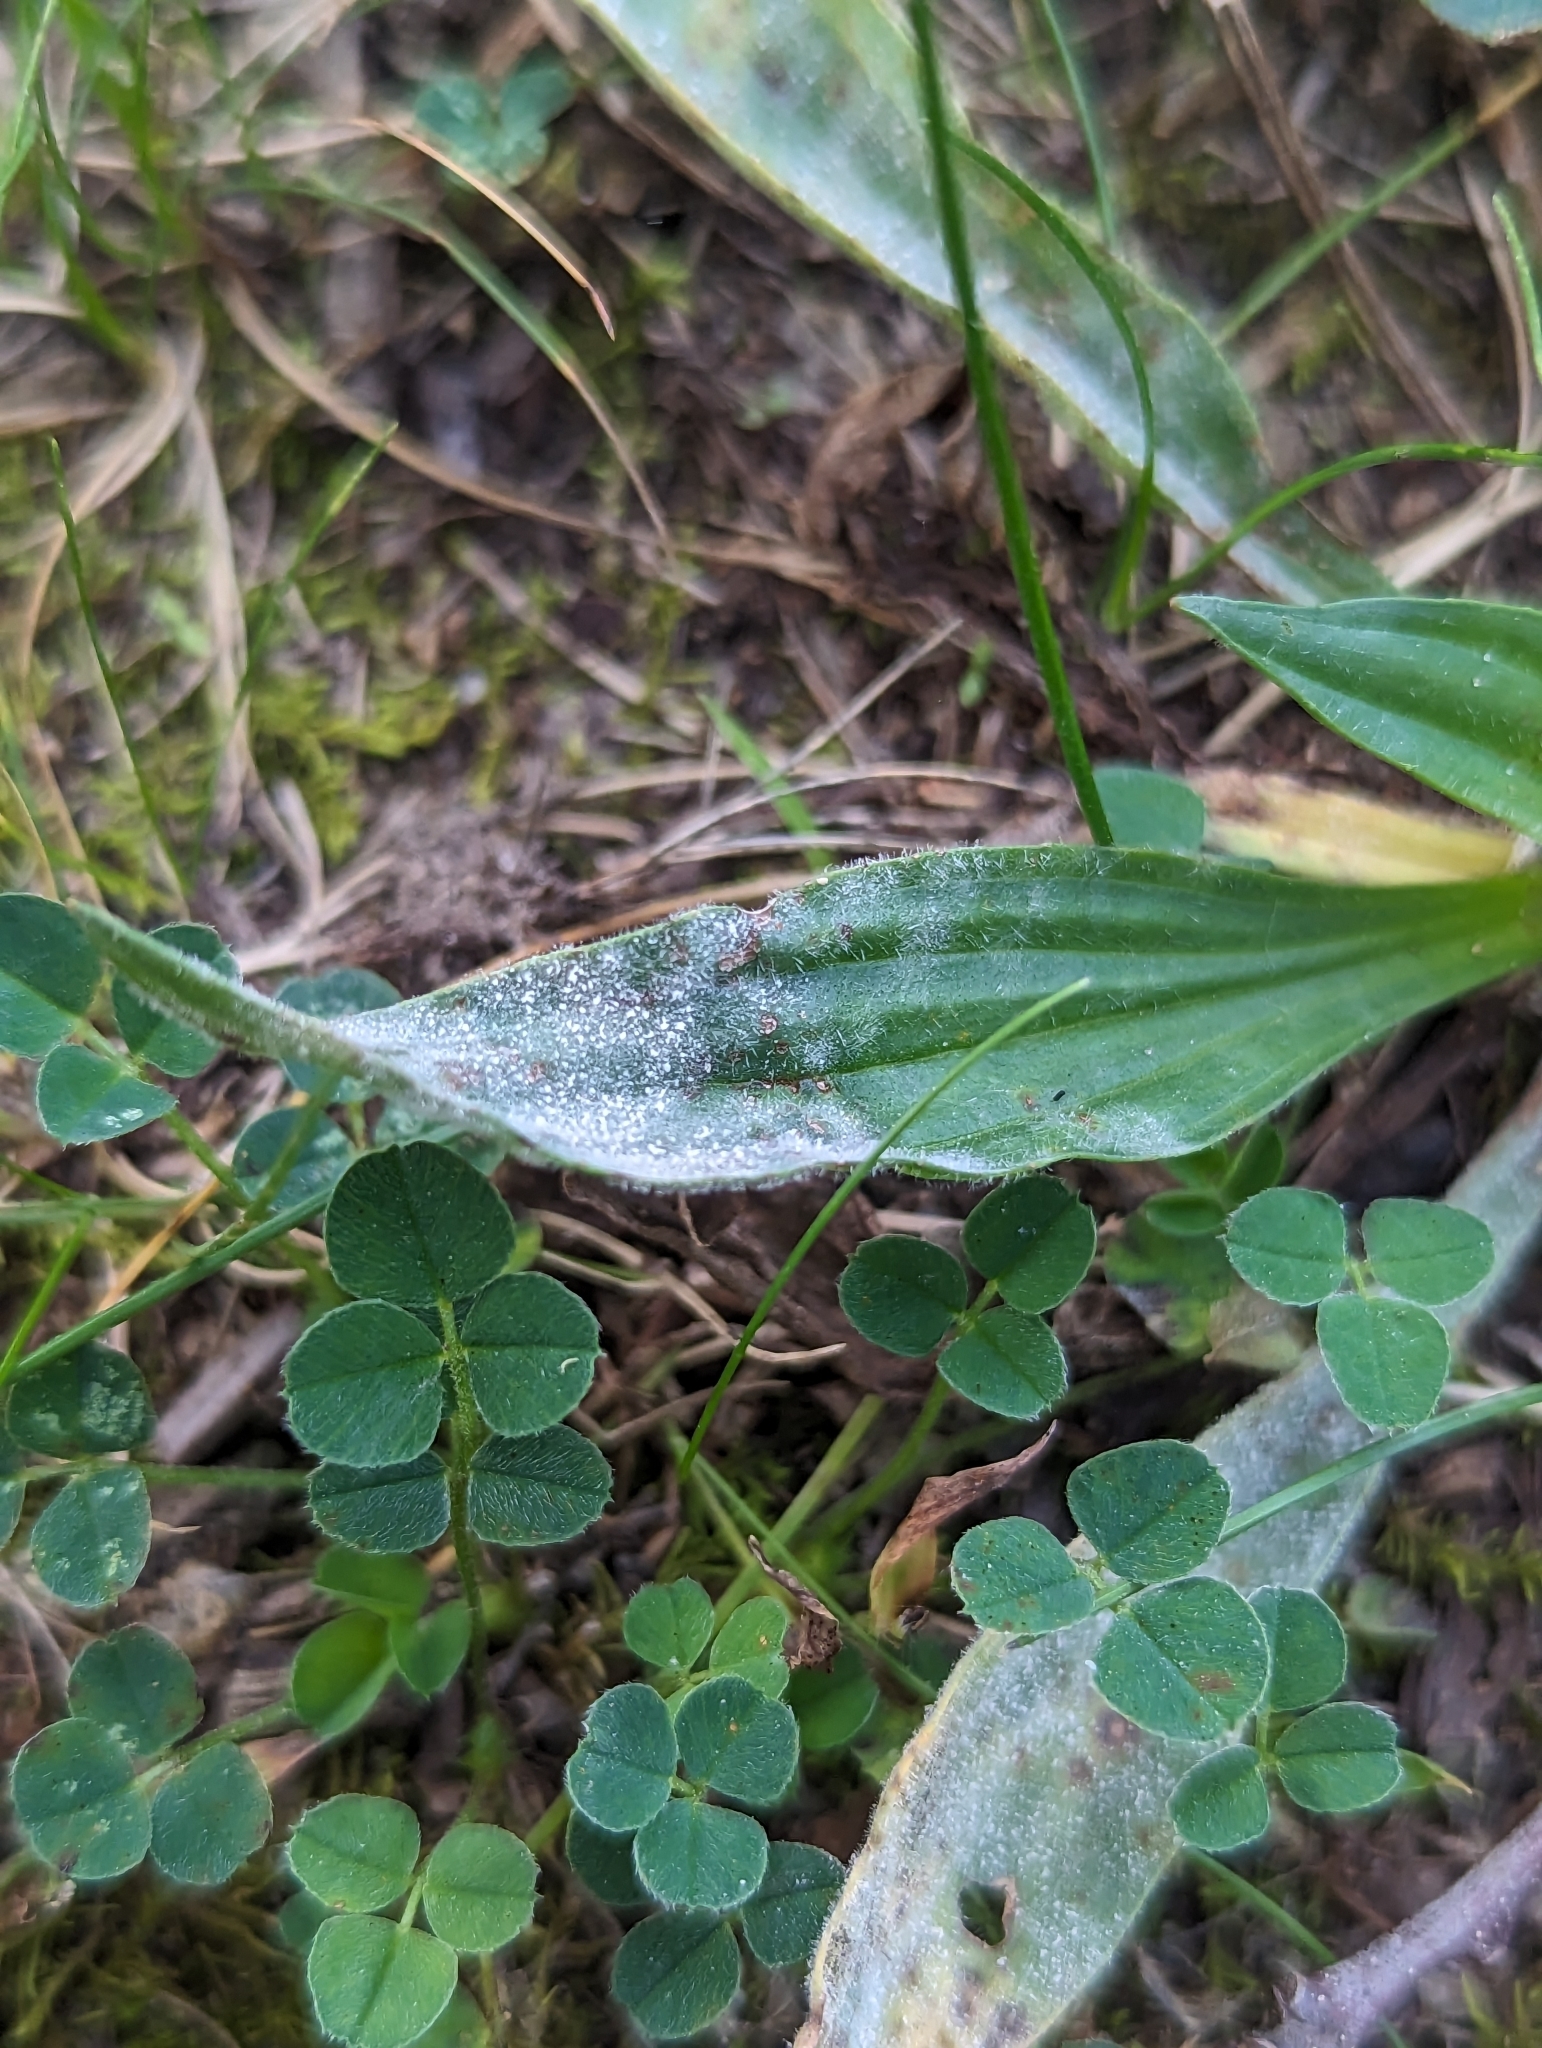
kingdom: Fungi
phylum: Ascomycota
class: Leotiomycetes
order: Helotiales
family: Erysiphaceae
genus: Golovinomyces
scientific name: Golovinomyces sordidus
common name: Plantain mildew
